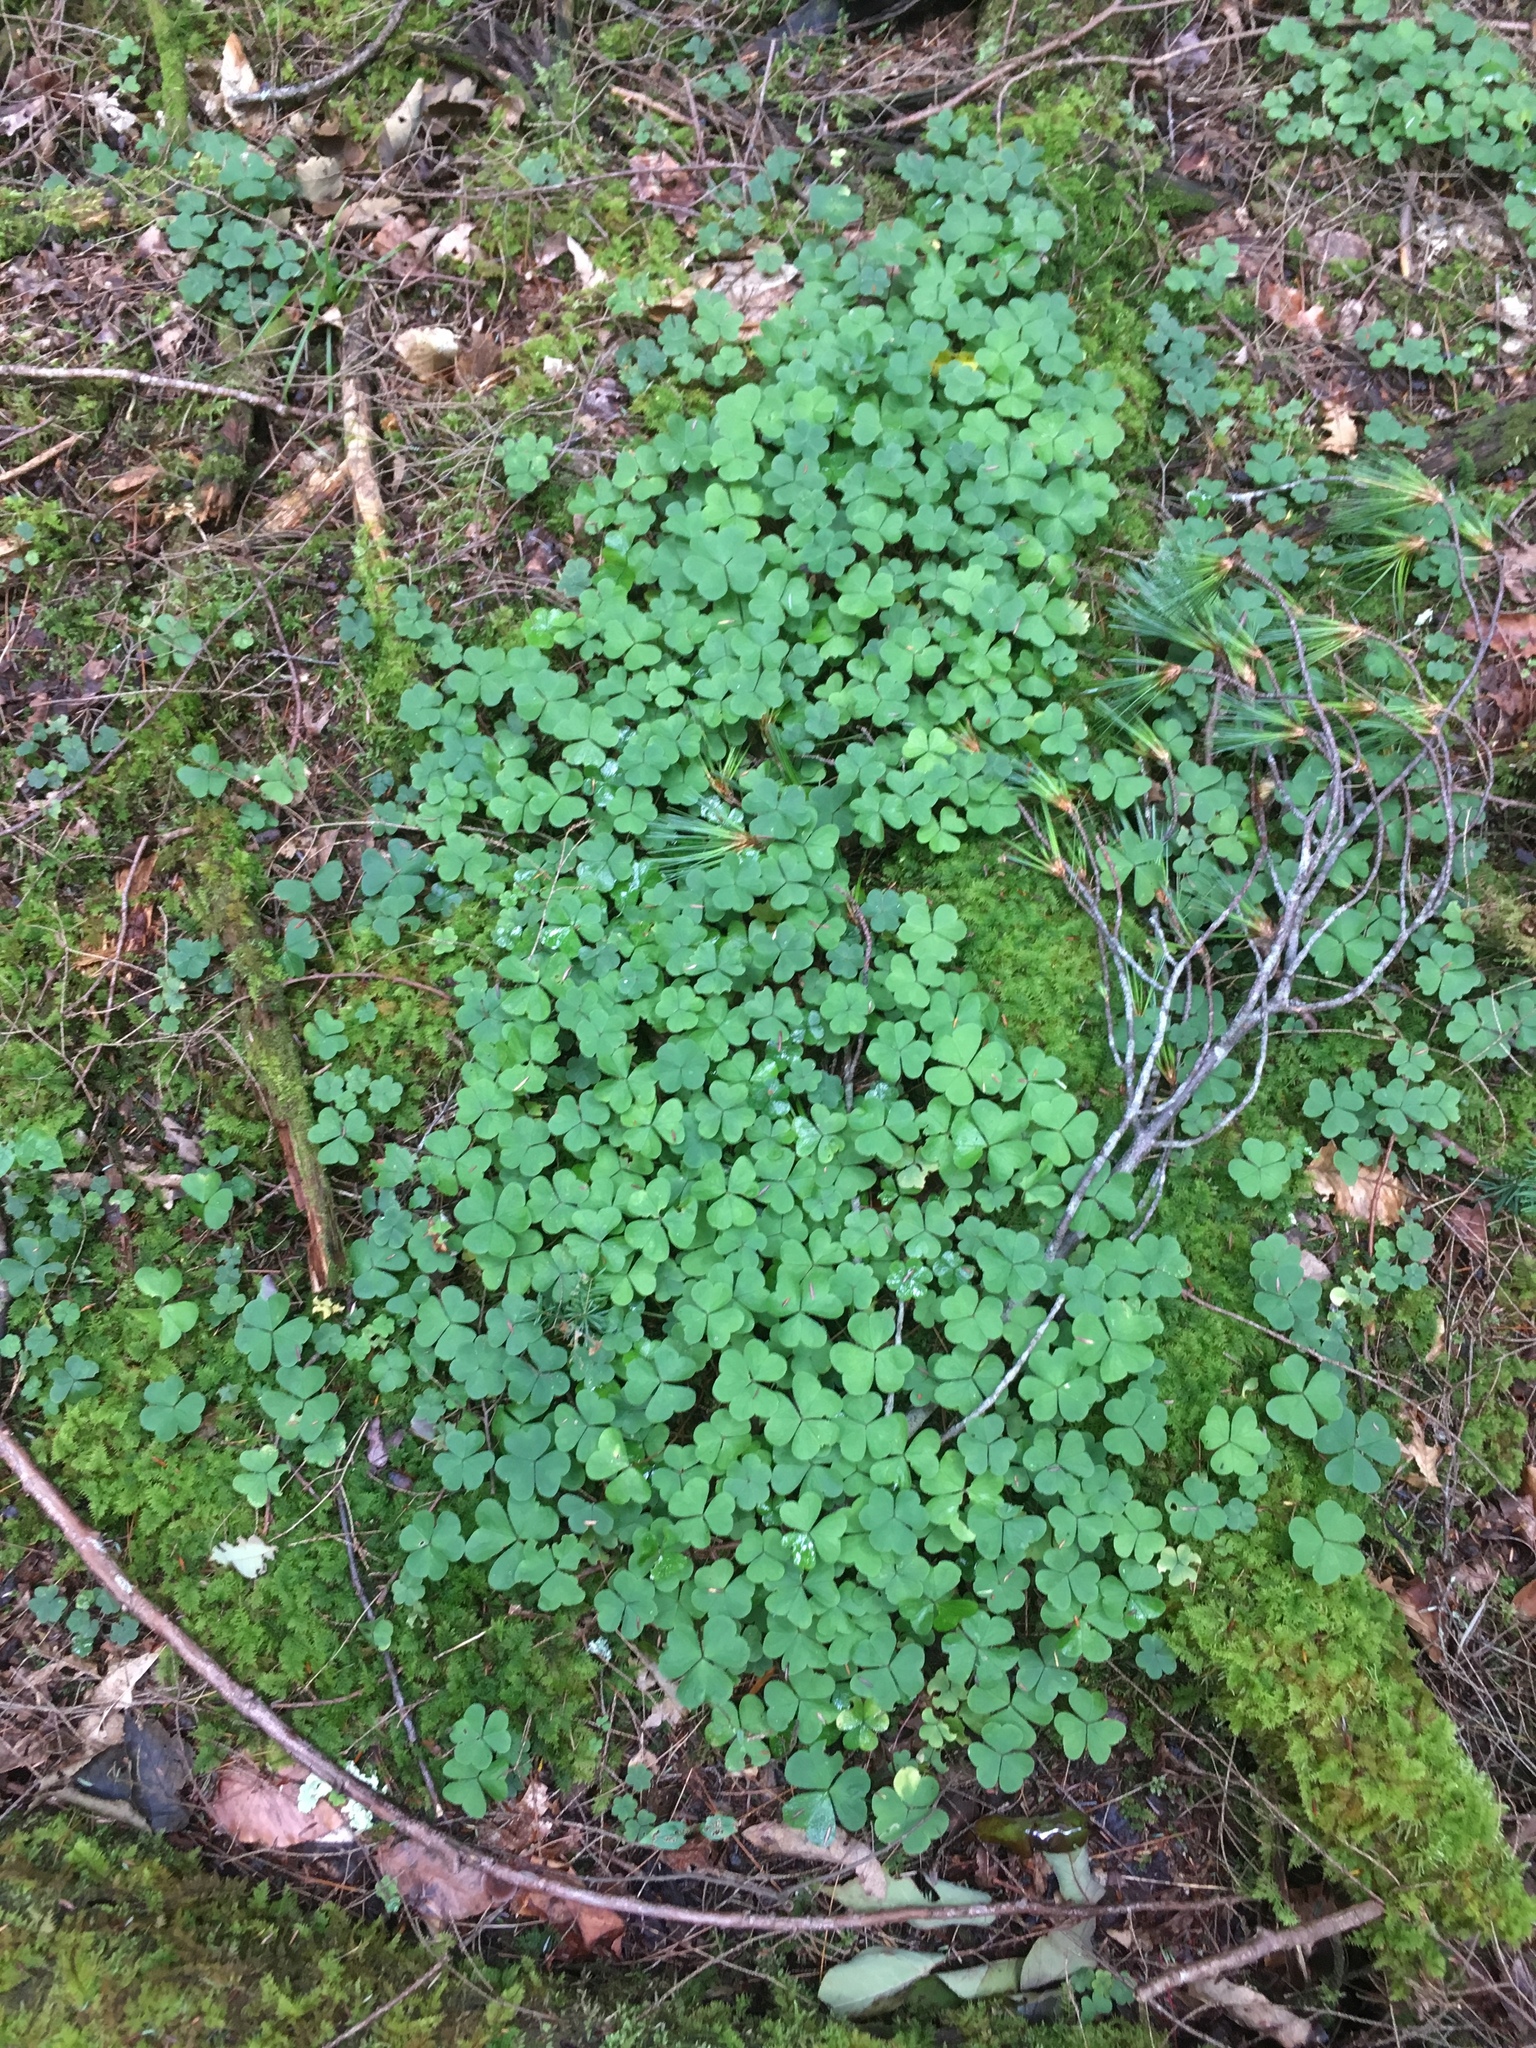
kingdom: Plantae
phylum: Tracheophyta
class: Magnoliopsida
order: Oxalidales
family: Oxalidaceae
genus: Oxalis
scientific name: Oxalis montana
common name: American wood-sorrel
